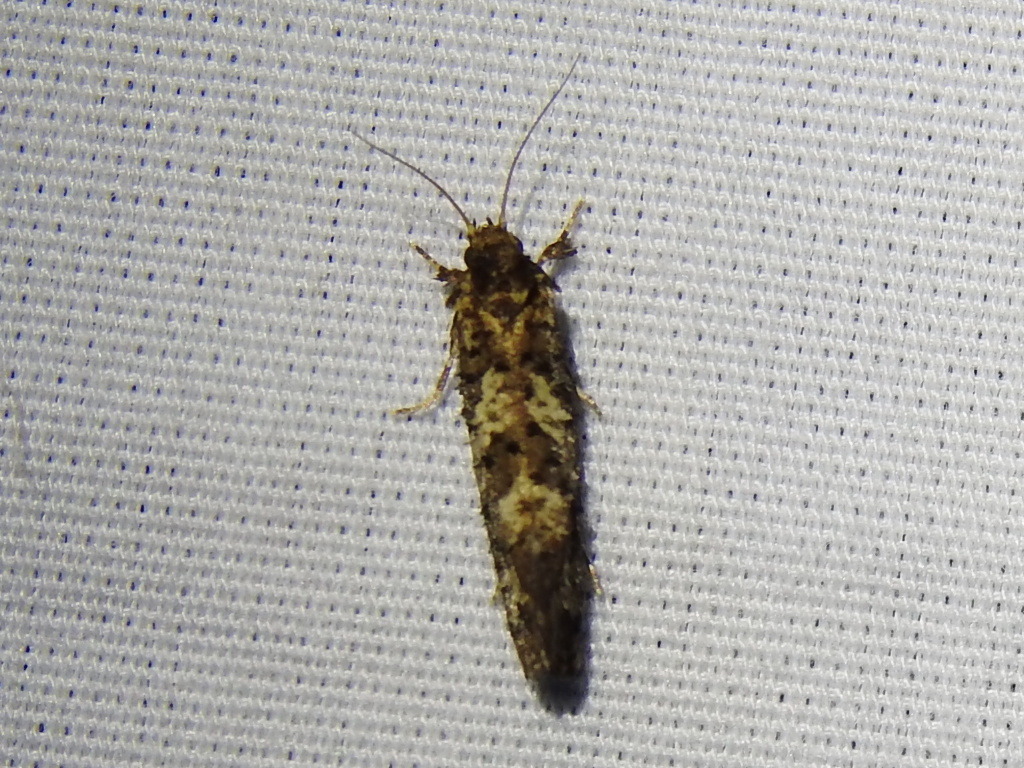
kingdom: Animalia
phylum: Arthropoda
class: Insecta
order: Lepidoptera
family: Tineidae
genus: Acrolophus
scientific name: Acrolophus cressoni
